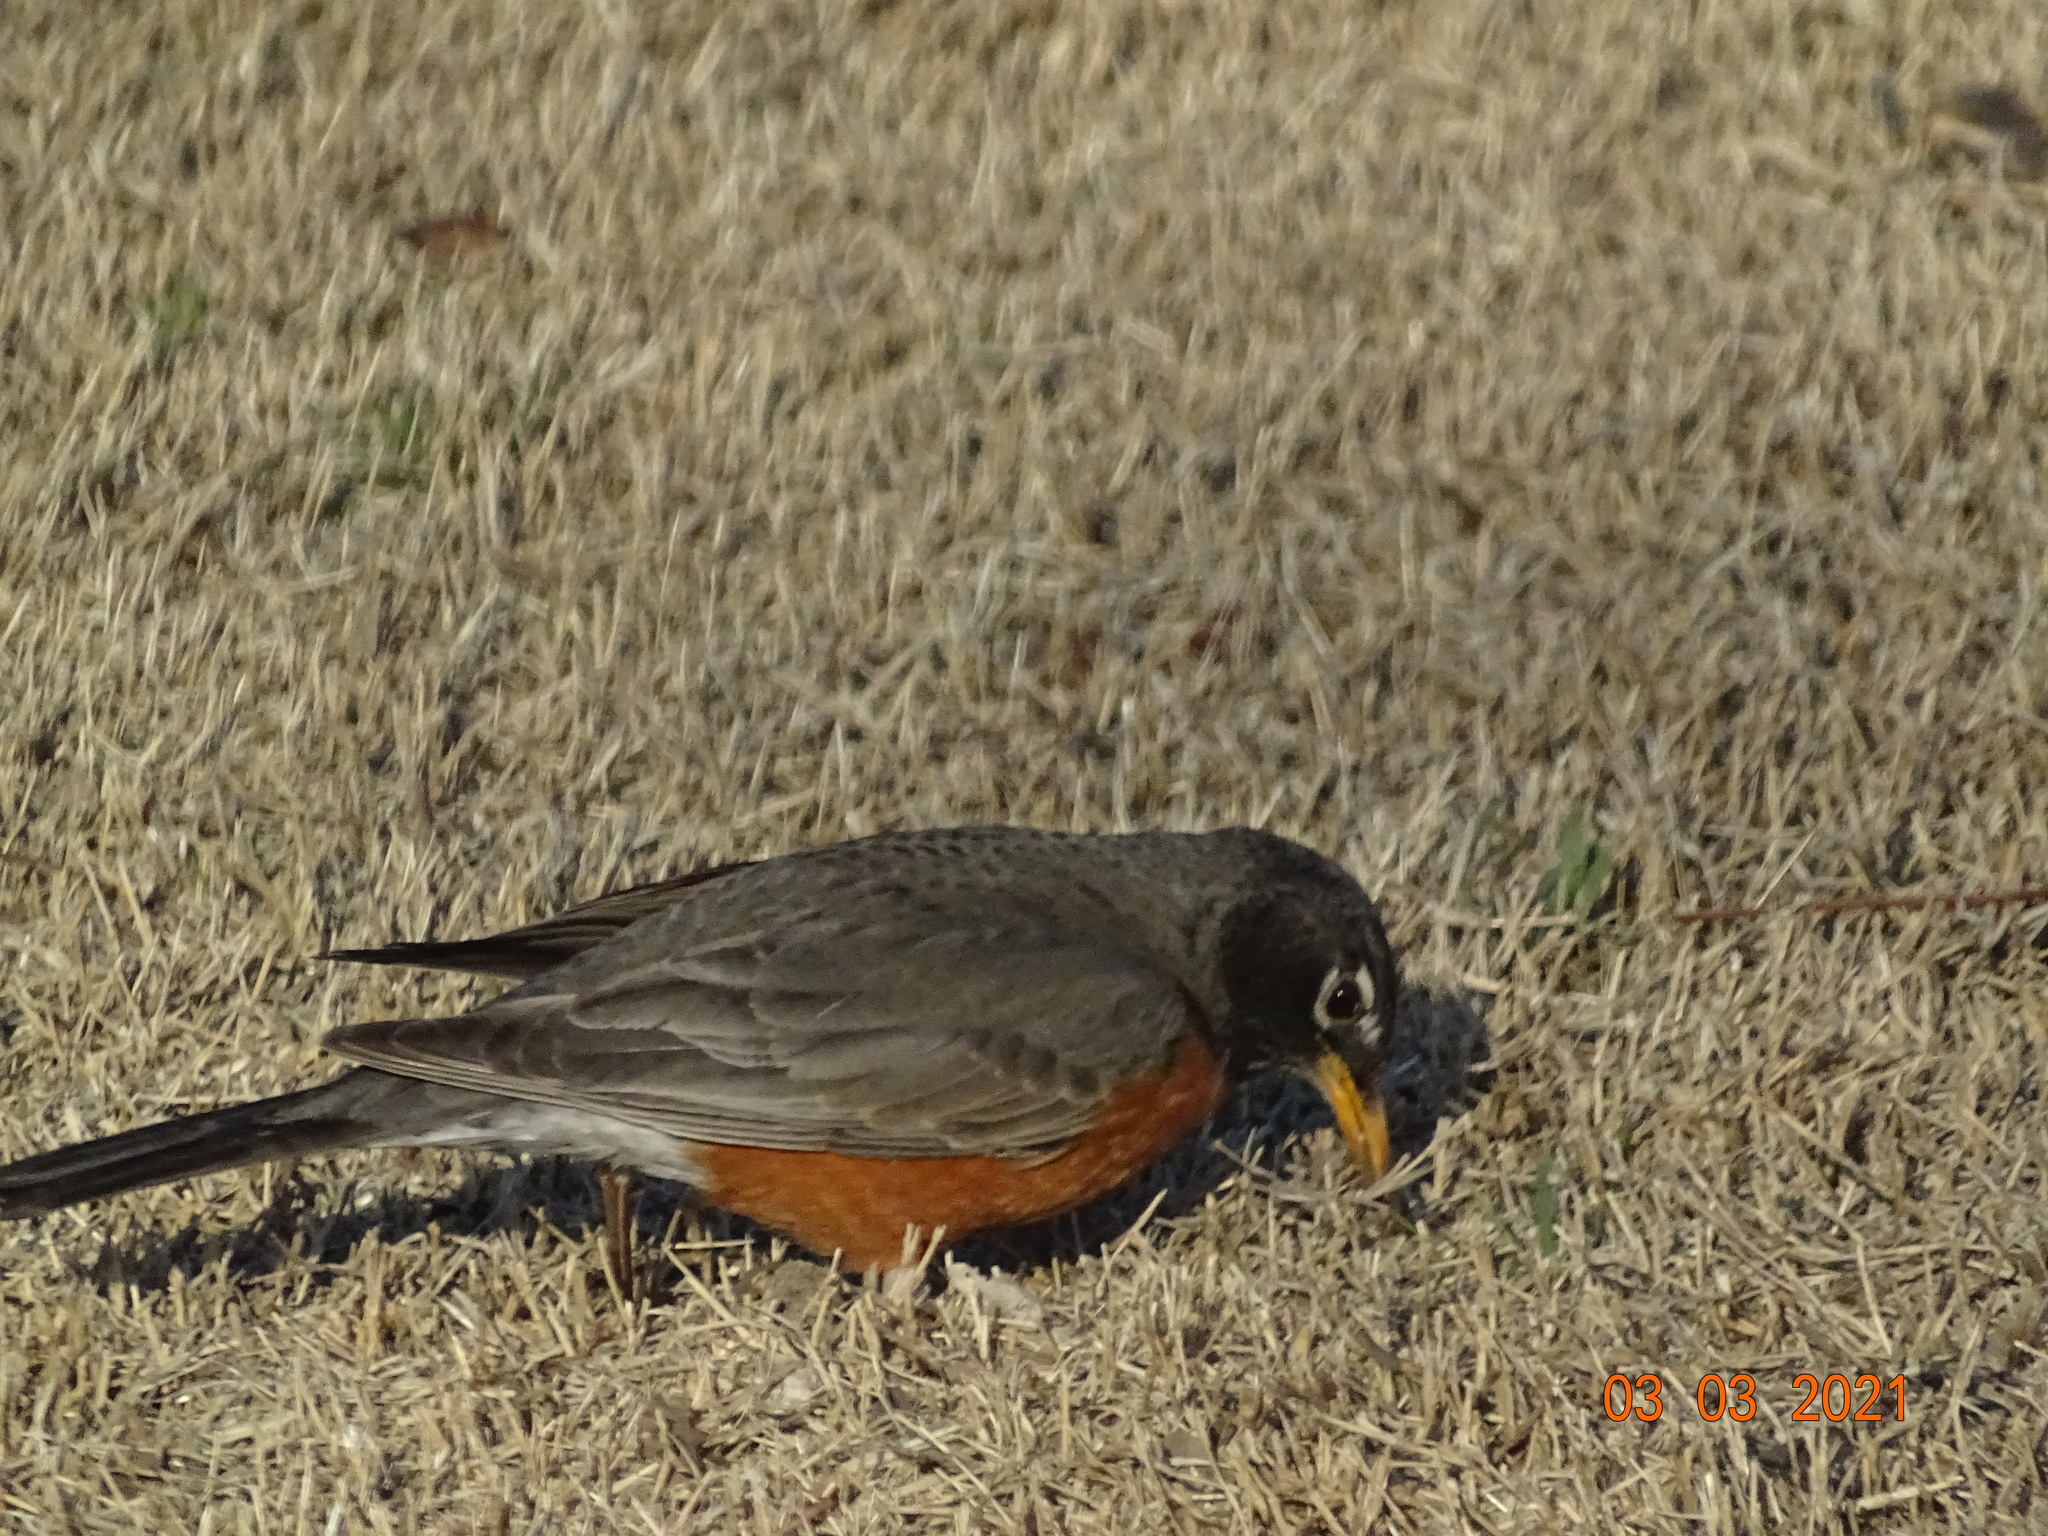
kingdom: Animalia
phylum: Chordata
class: Aves
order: Passeriformes
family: Turdidae
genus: Turdus
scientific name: Turdus migratorius
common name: American robin
